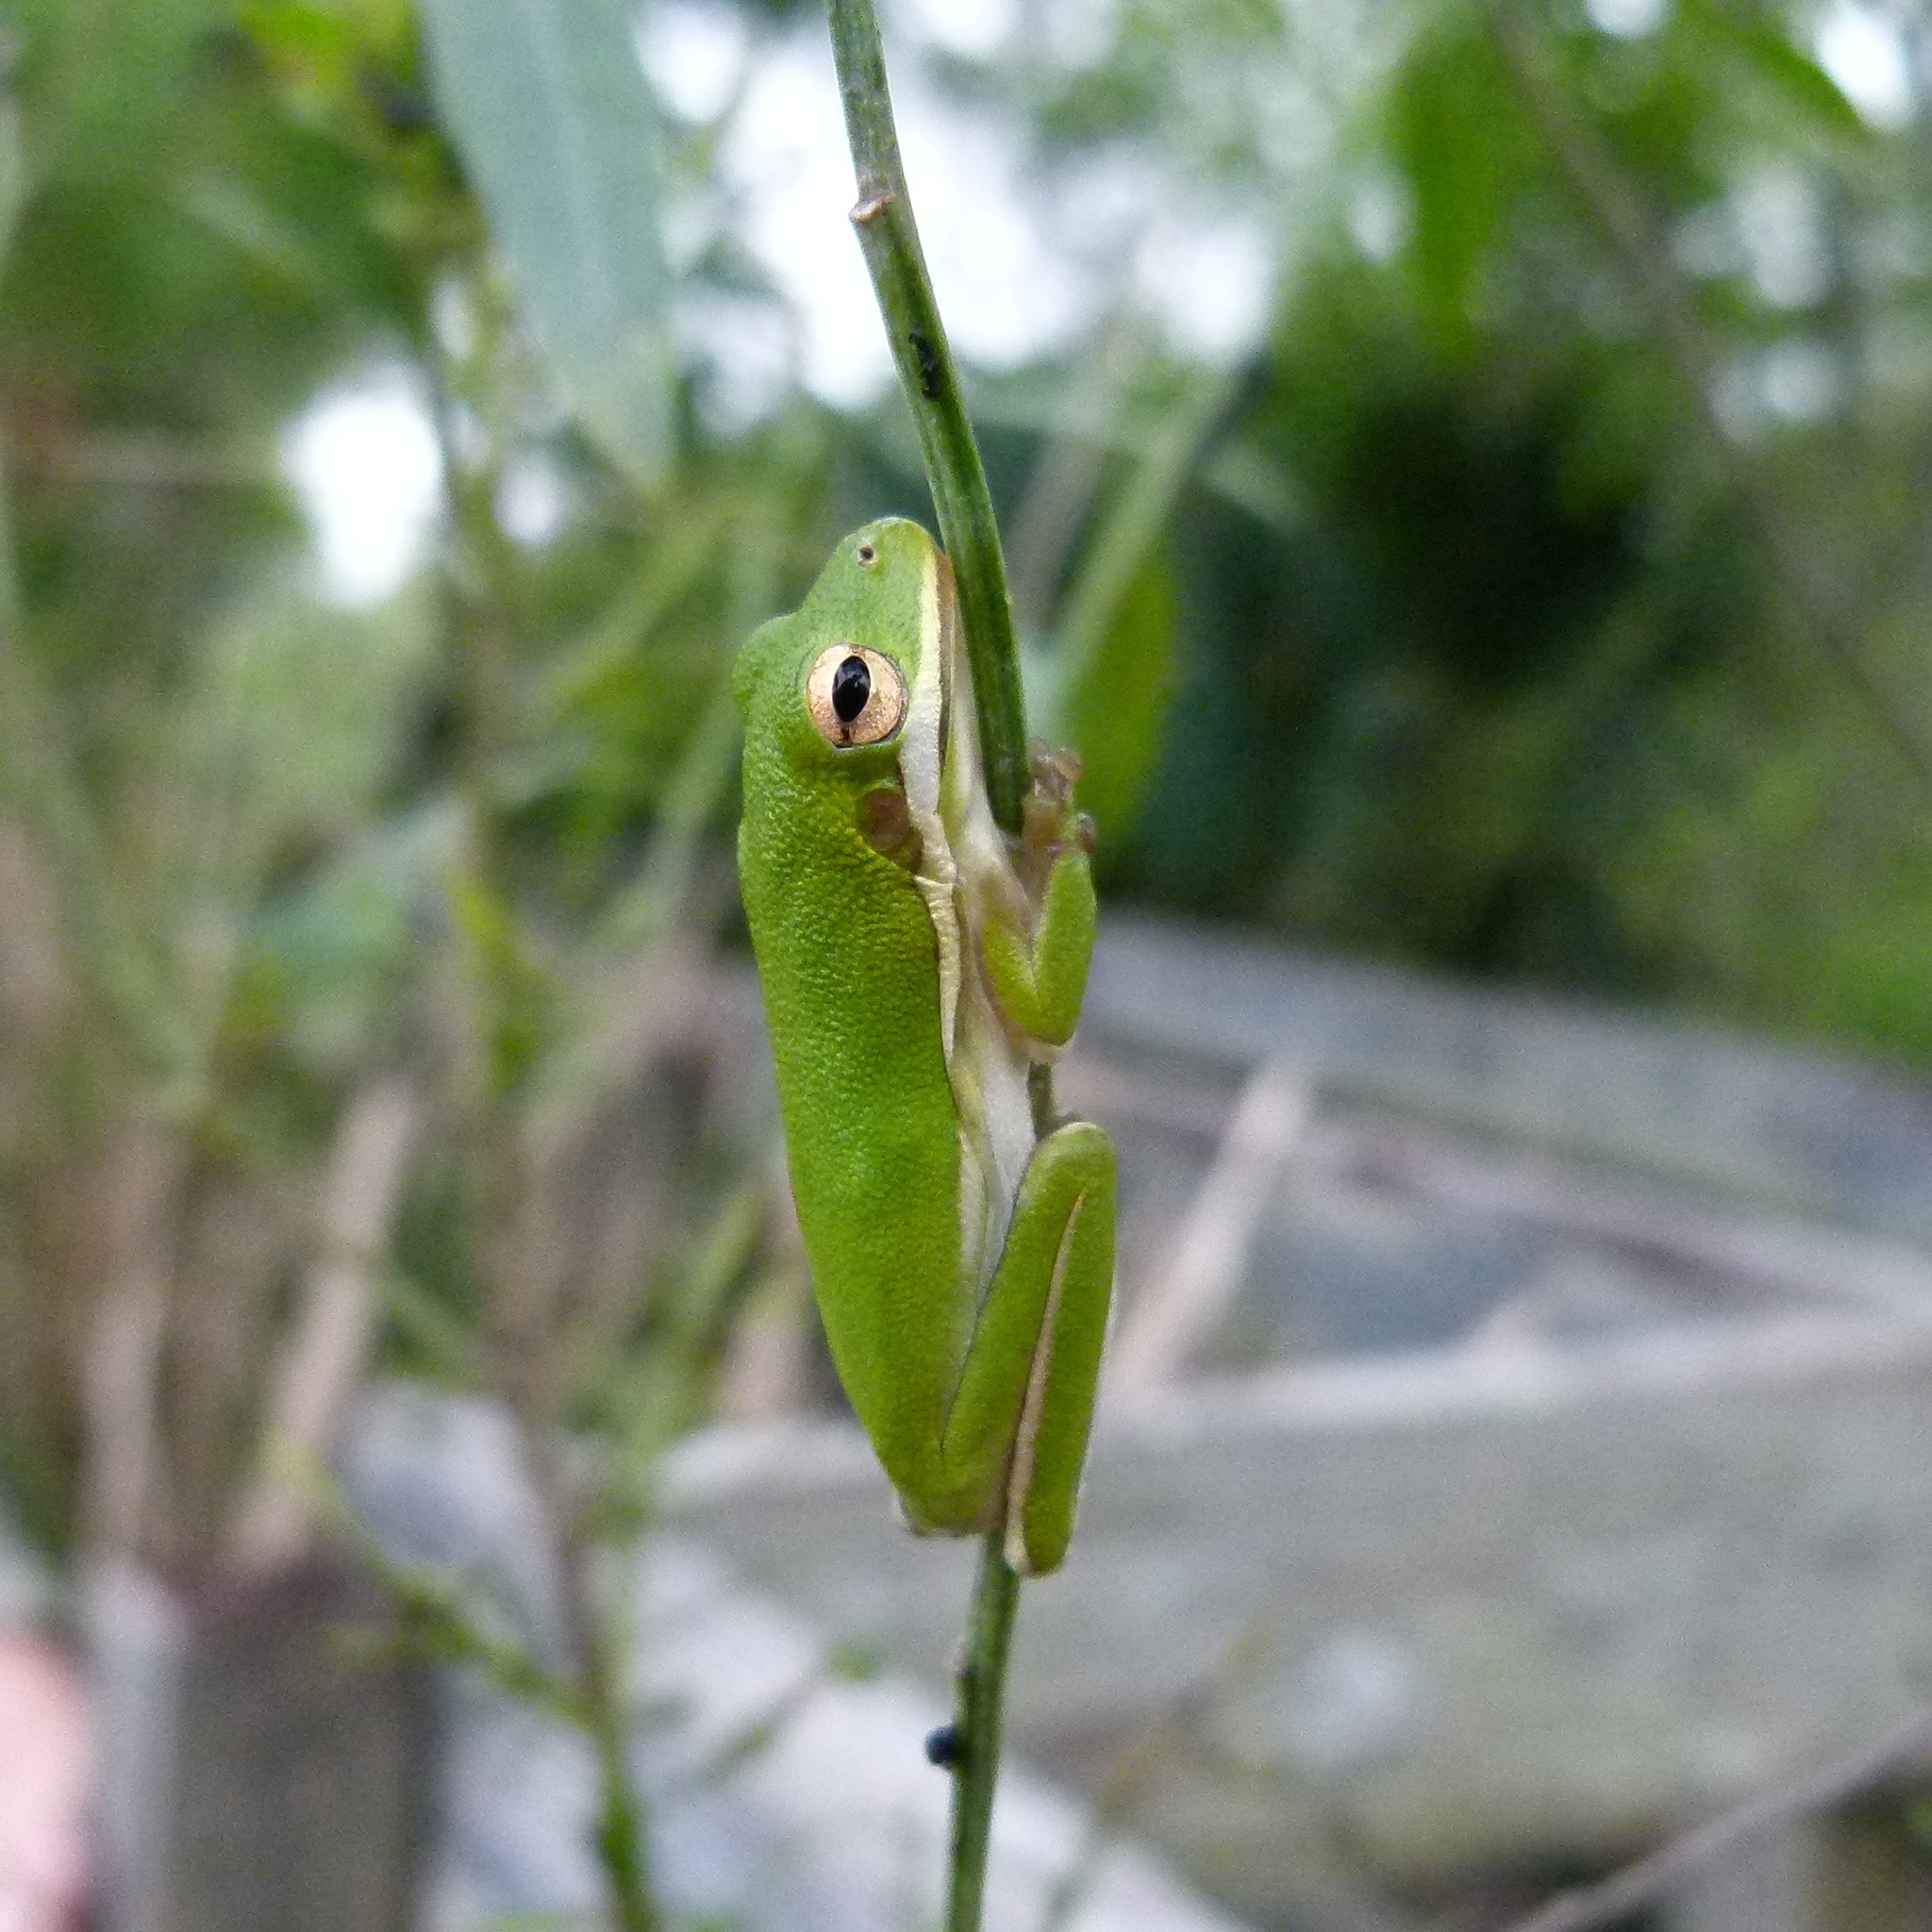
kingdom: Animalia
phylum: Chordata
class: Amphibia
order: Anura
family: Hylidae
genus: Dryophytes
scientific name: Dryophytes cinereus
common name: Green treefrog
